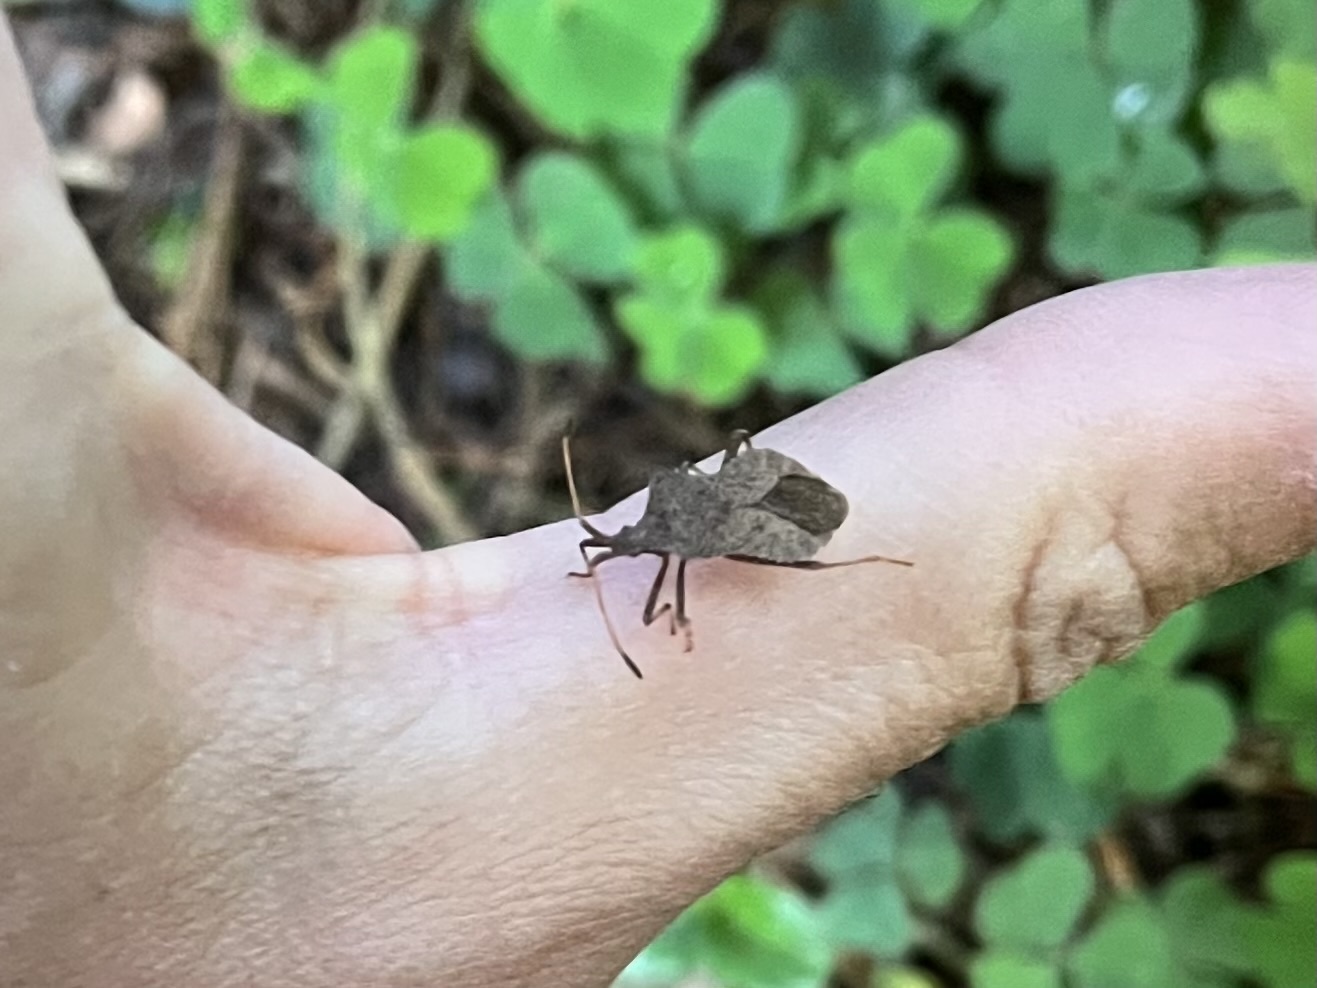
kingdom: Animalia
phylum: Arthropoda
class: Insecta
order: Hemiptera
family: Coreidae
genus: Coreus
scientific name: Coreus marginatus
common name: Dock bug
